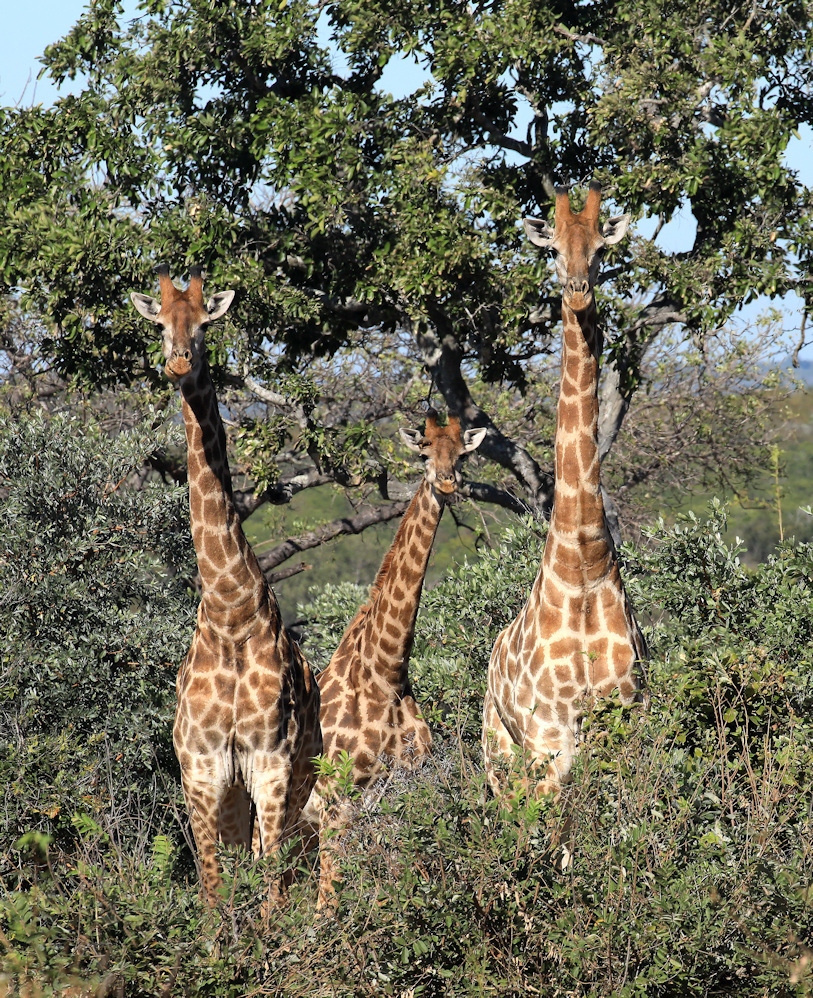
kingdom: Animalia
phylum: Chordata
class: Mammalia
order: Artiodactyla
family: Giraffidae
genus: Giraffa
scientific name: Giraffa giraffa
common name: Southern giraffe
